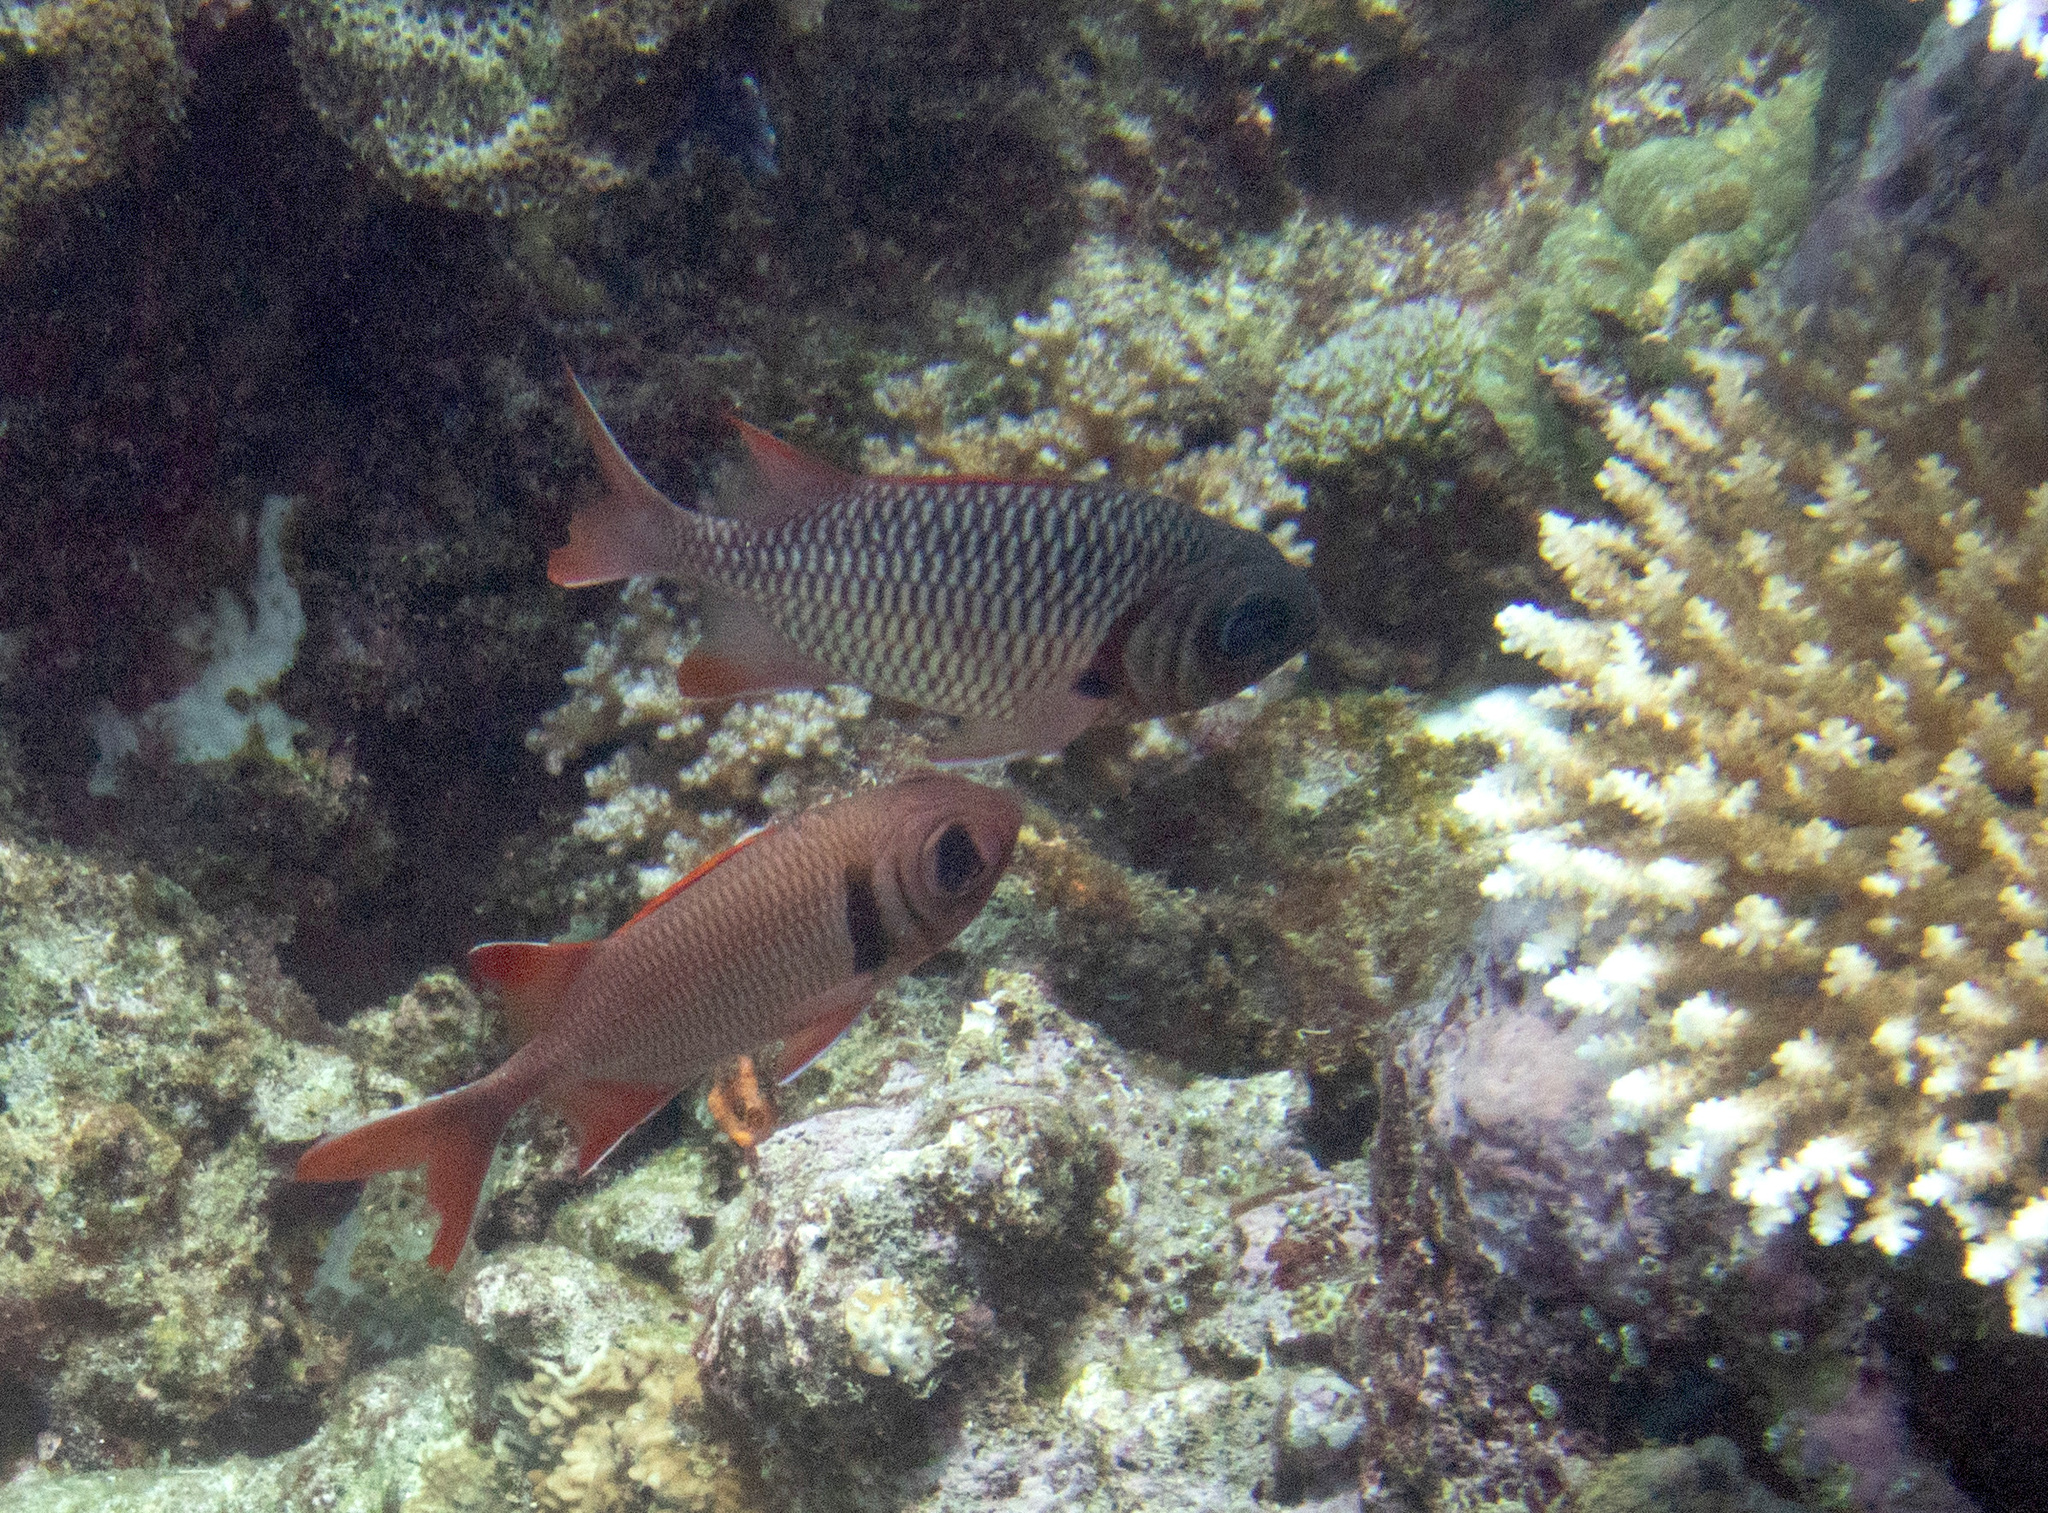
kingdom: Animalia
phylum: Chordata
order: Beryciformes
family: Holocentridae
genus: Myripristis
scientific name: Myripristis violacea
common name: Lattice soldierfish
